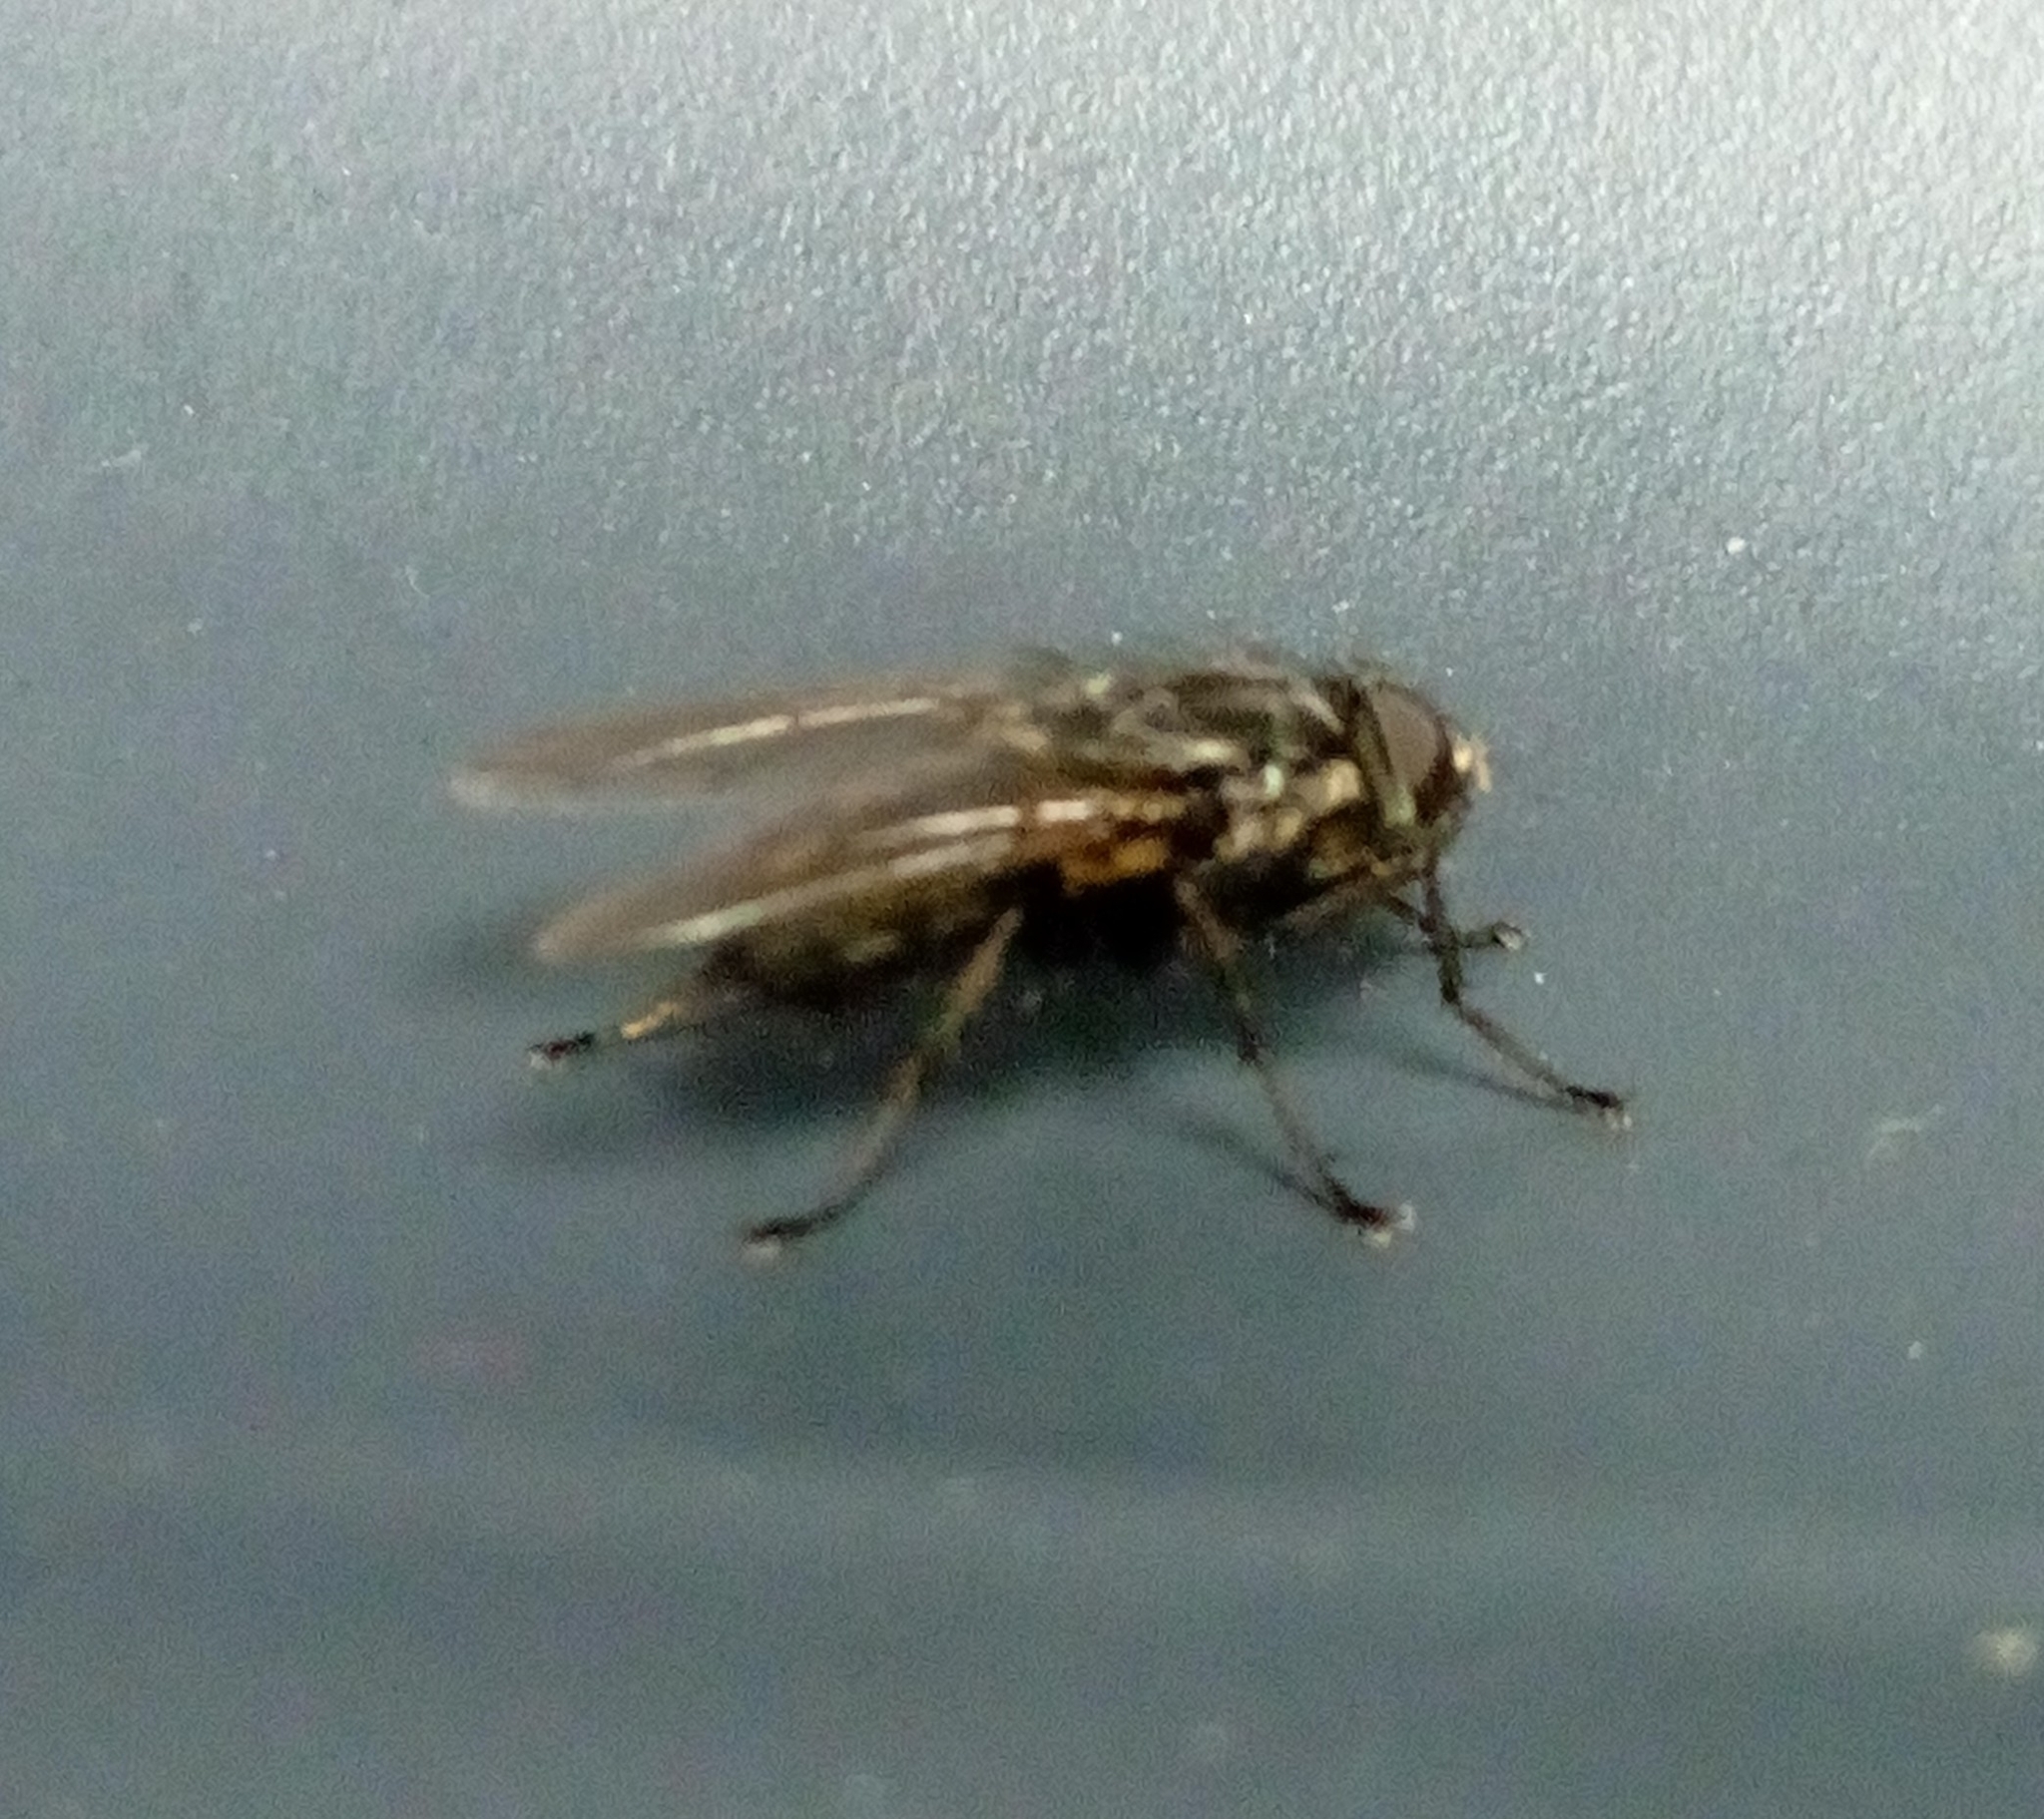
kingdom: Animalia
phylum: Arthropoda
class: Insecta
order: Diptera
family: Polleniidae
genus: Pollenia
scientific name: Pollenia vagabunda
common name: Vagabund cluster fly
